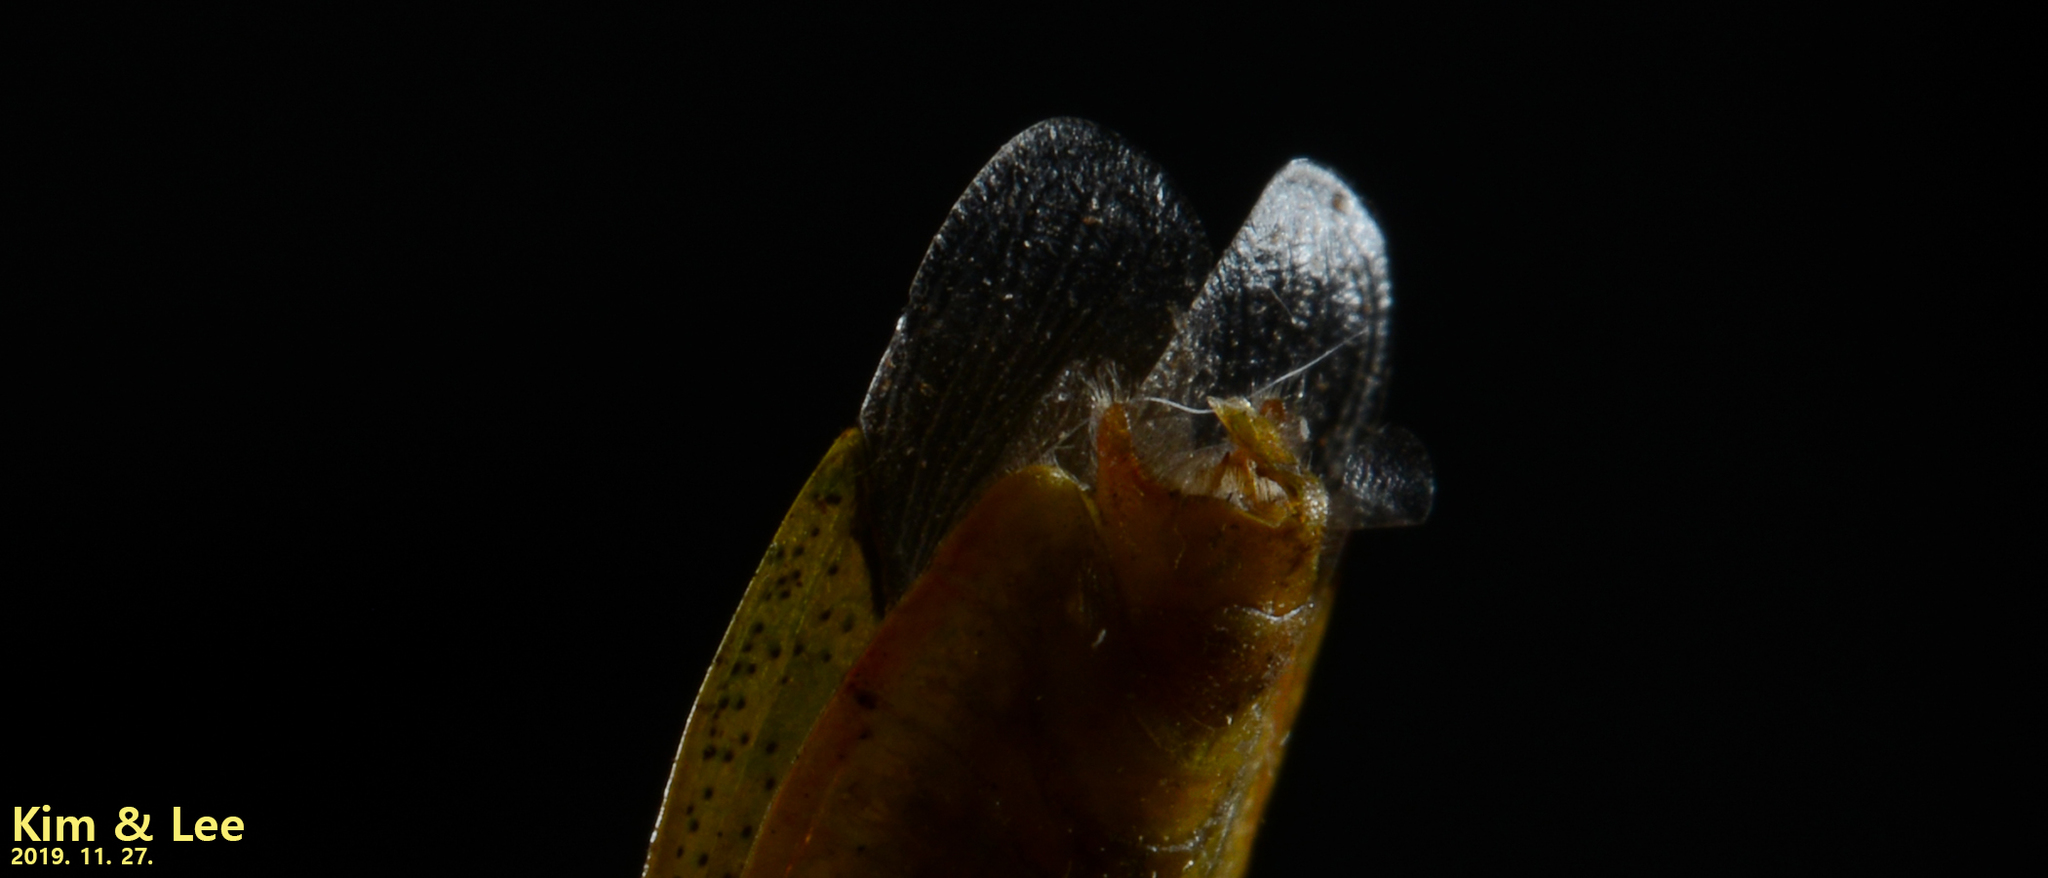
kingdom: Animalia
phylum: Arthropoda
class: Insecta
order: Hemiptera
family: Urostylididae
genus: Urostylis
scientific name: Urostylis hubeiensis
